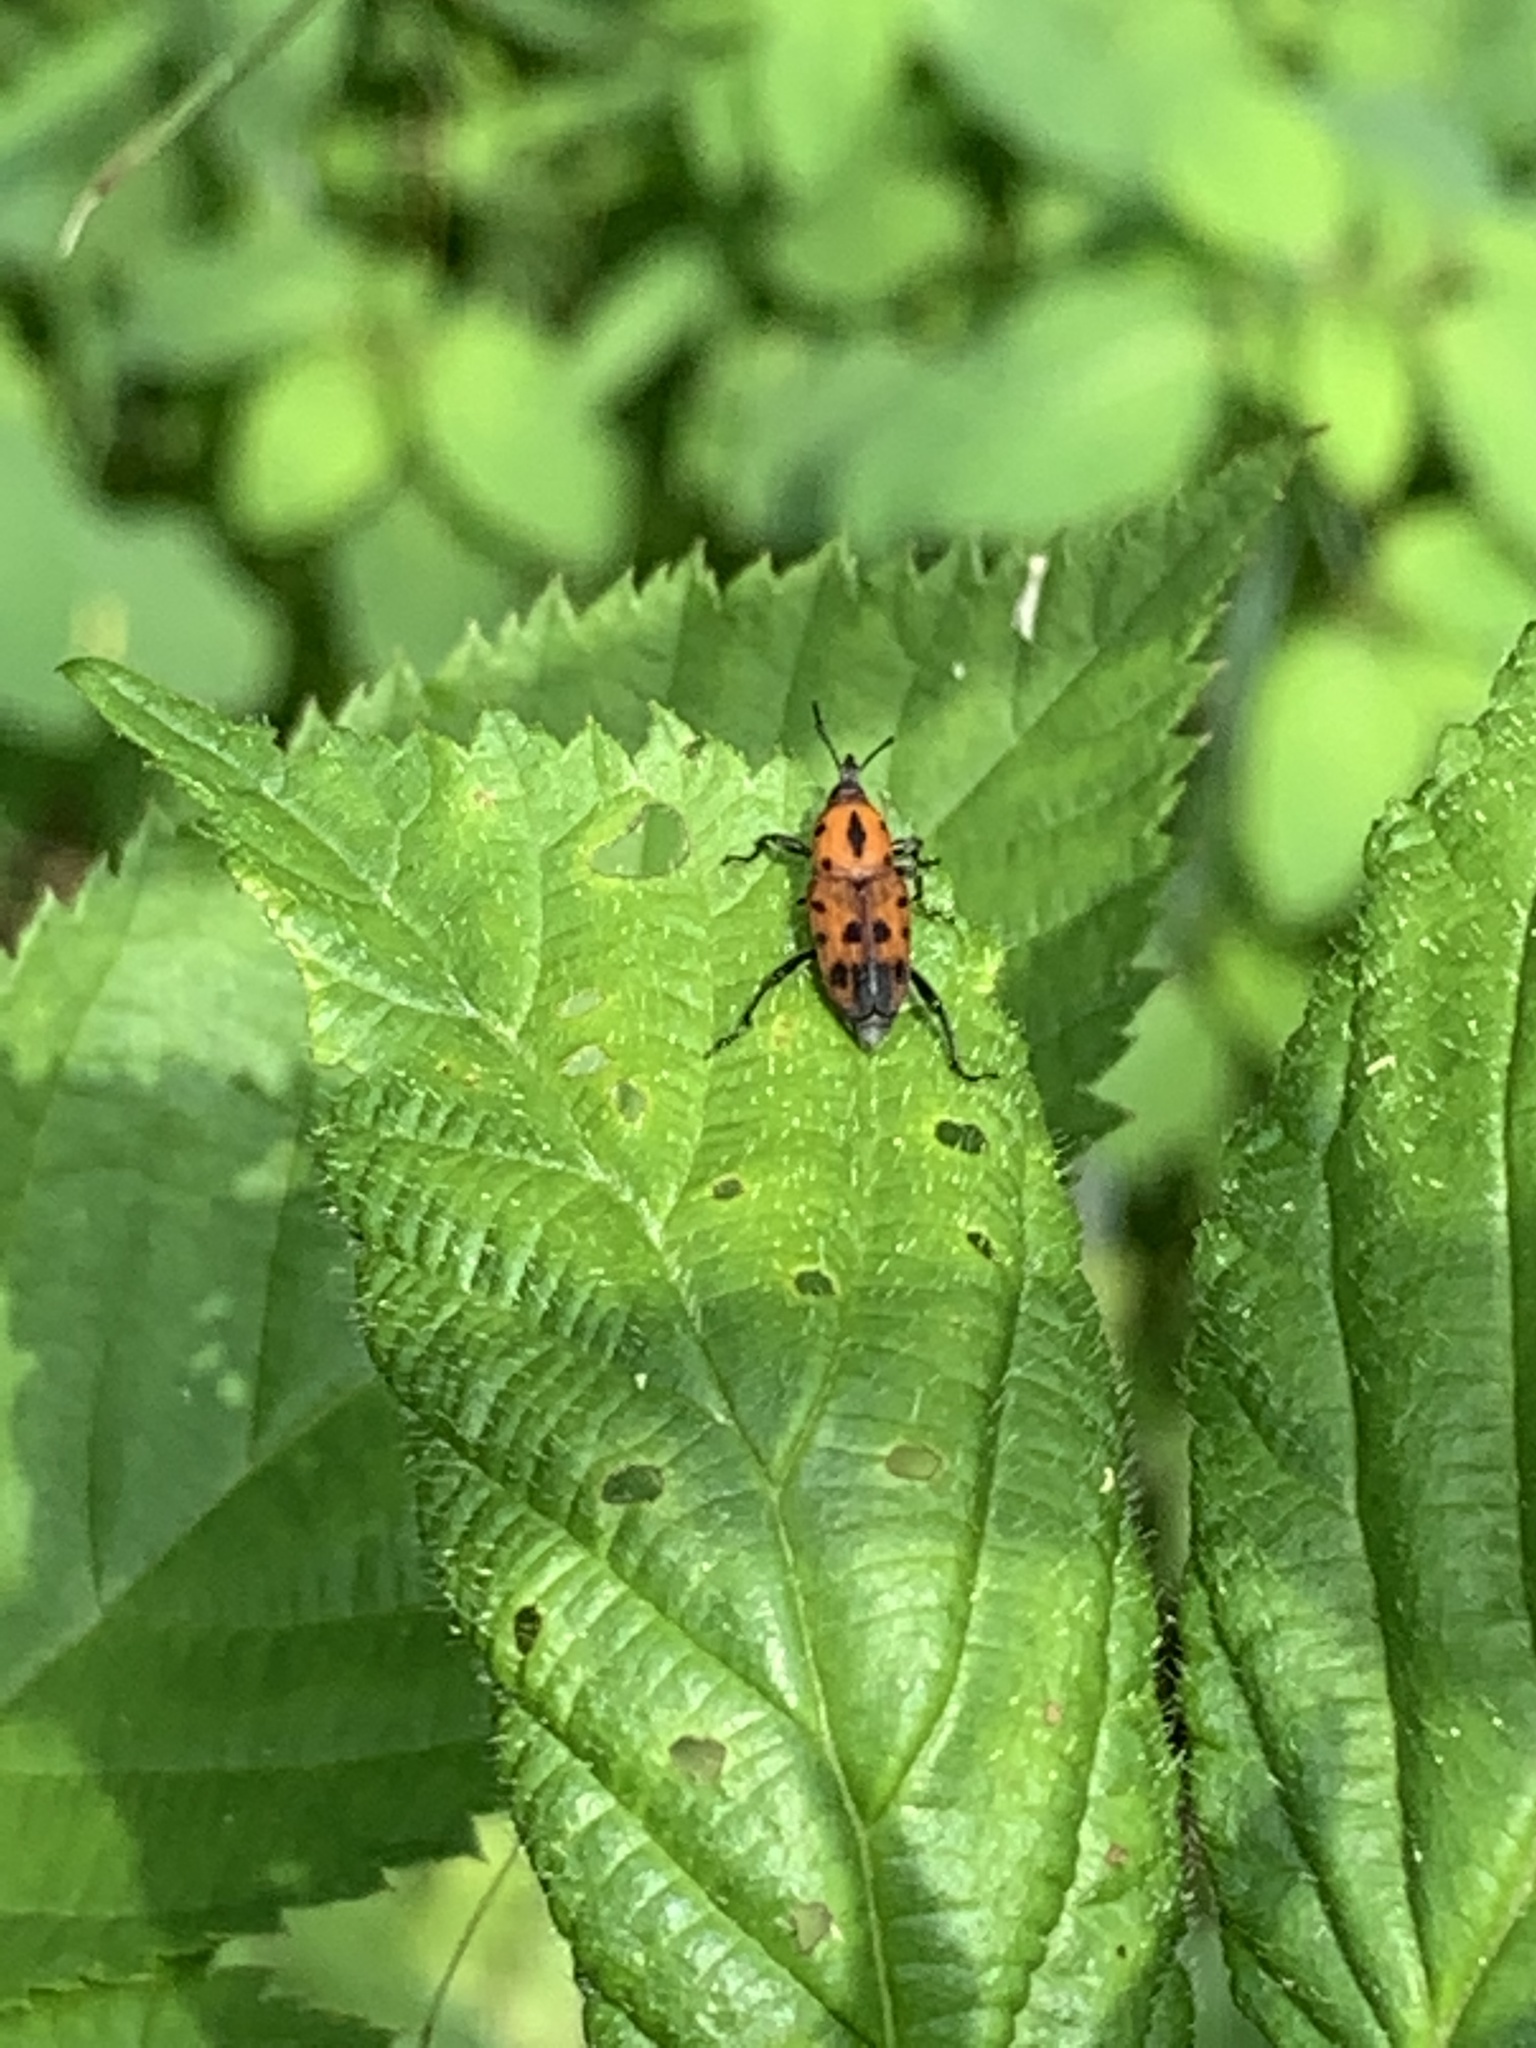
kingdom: Animalia
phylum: Arthropoda
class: Insecta
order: Coleoptera
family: Dryophthoridae
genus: Rhodobaenus
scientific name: Rhodobaenus tredecimpunctatus
